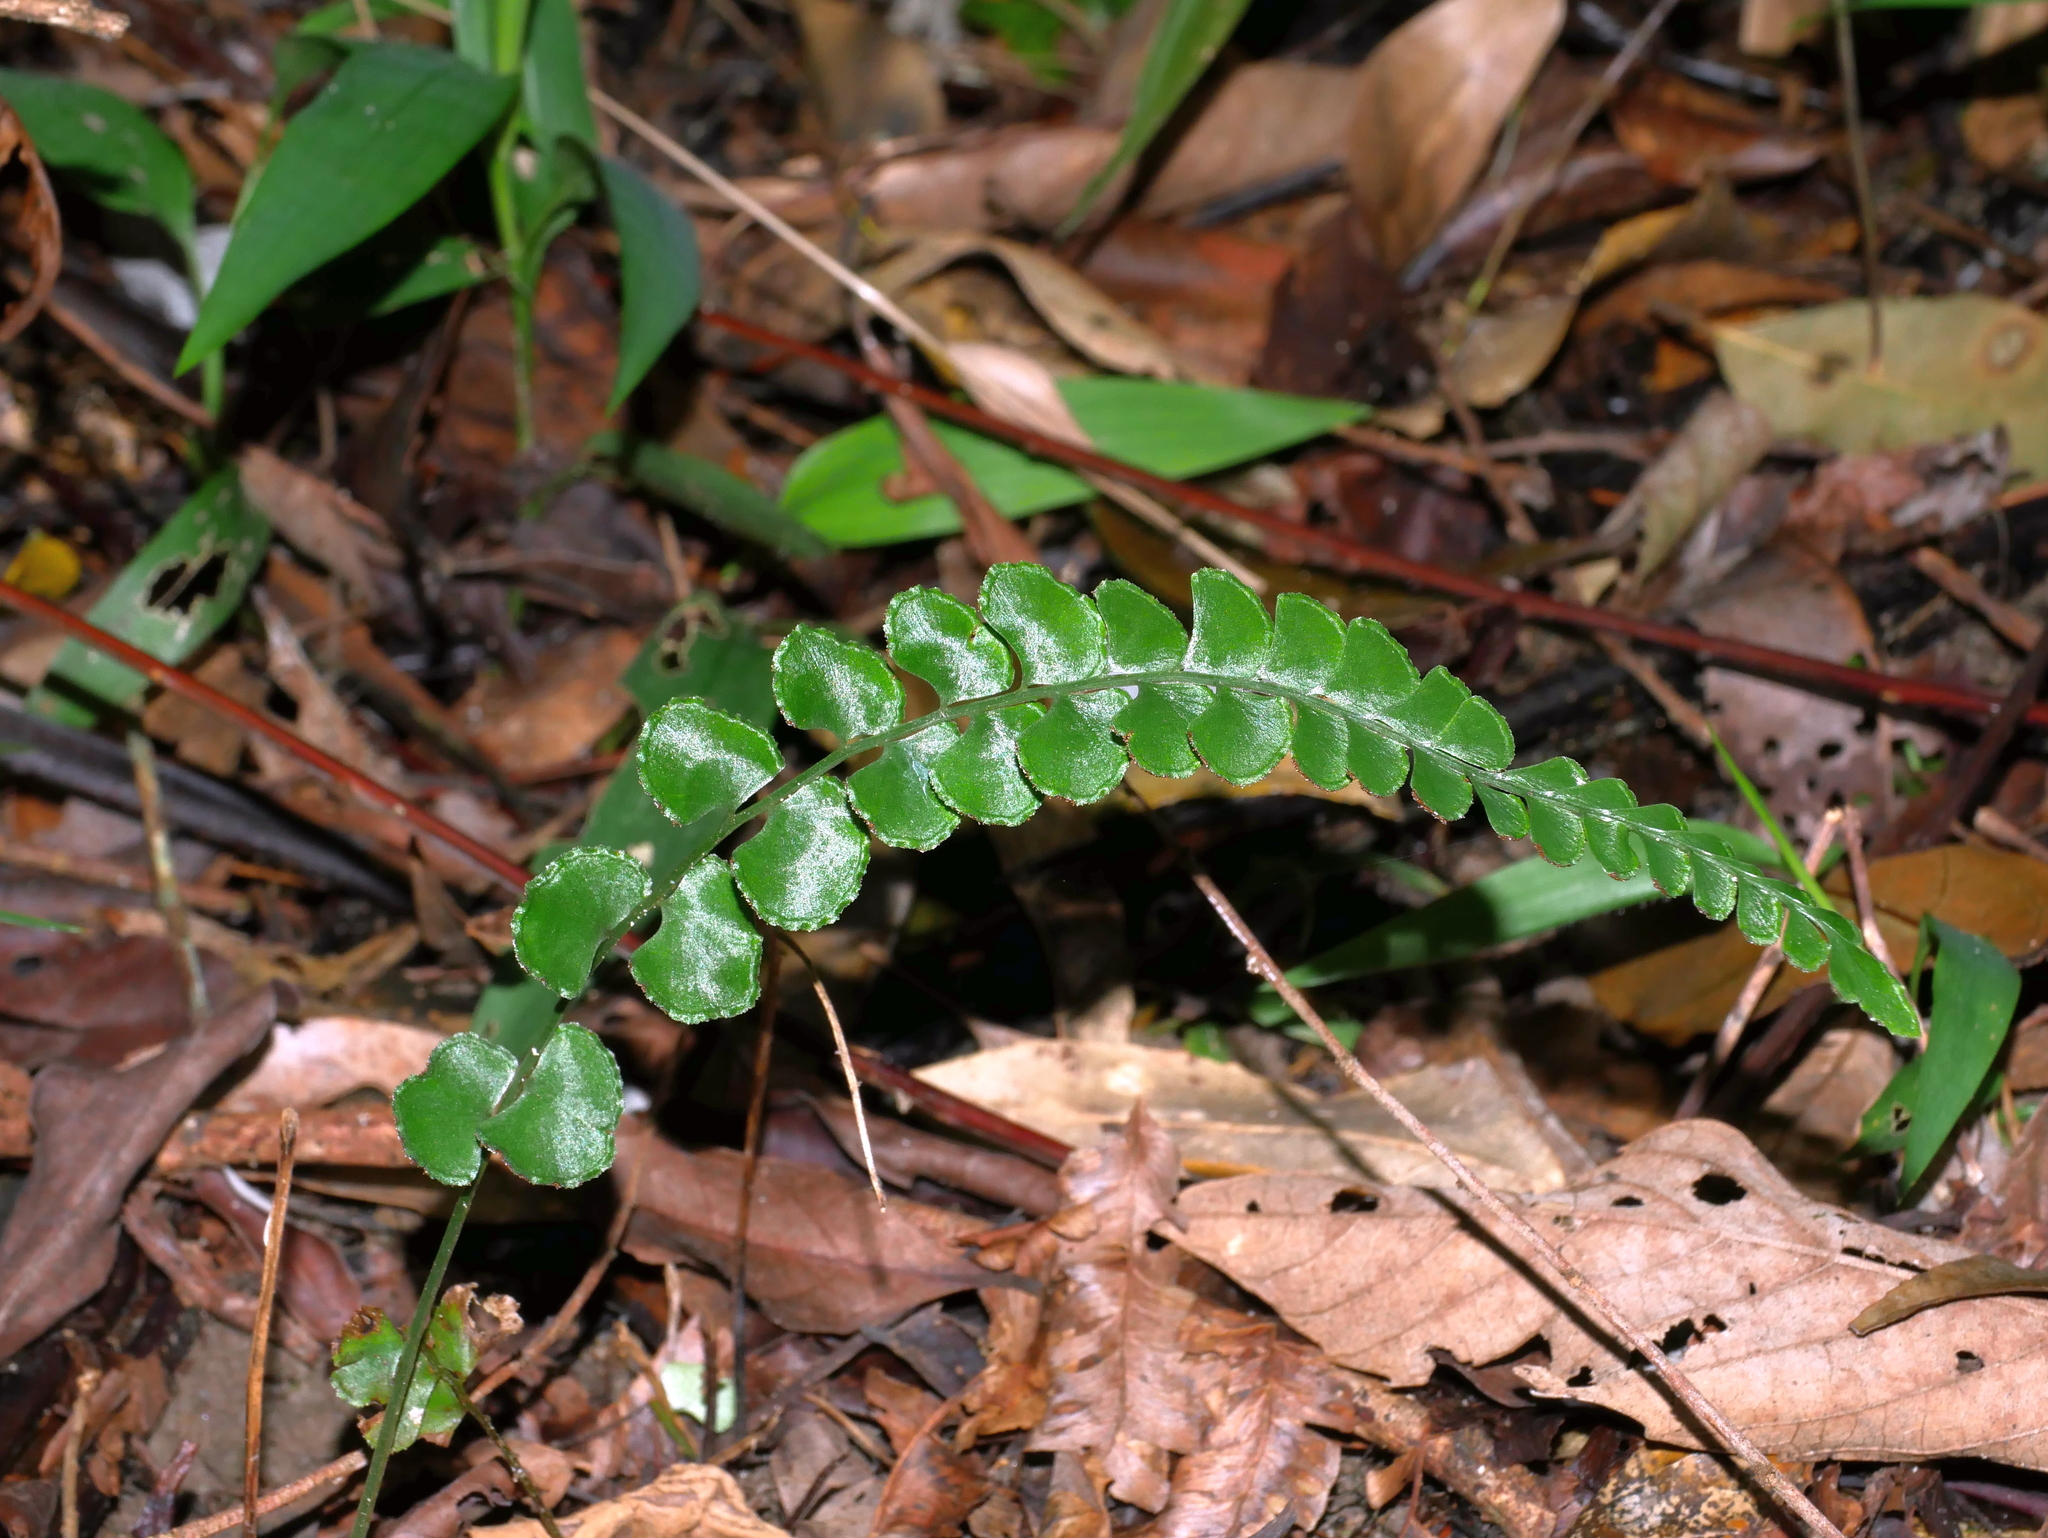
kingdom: Plantae
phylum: Tracheophyta
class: Polypodiopsida
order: Polypodiales
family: Lindsaeaceae
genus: Lindsaea
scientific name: Lindsaea orbiculata
